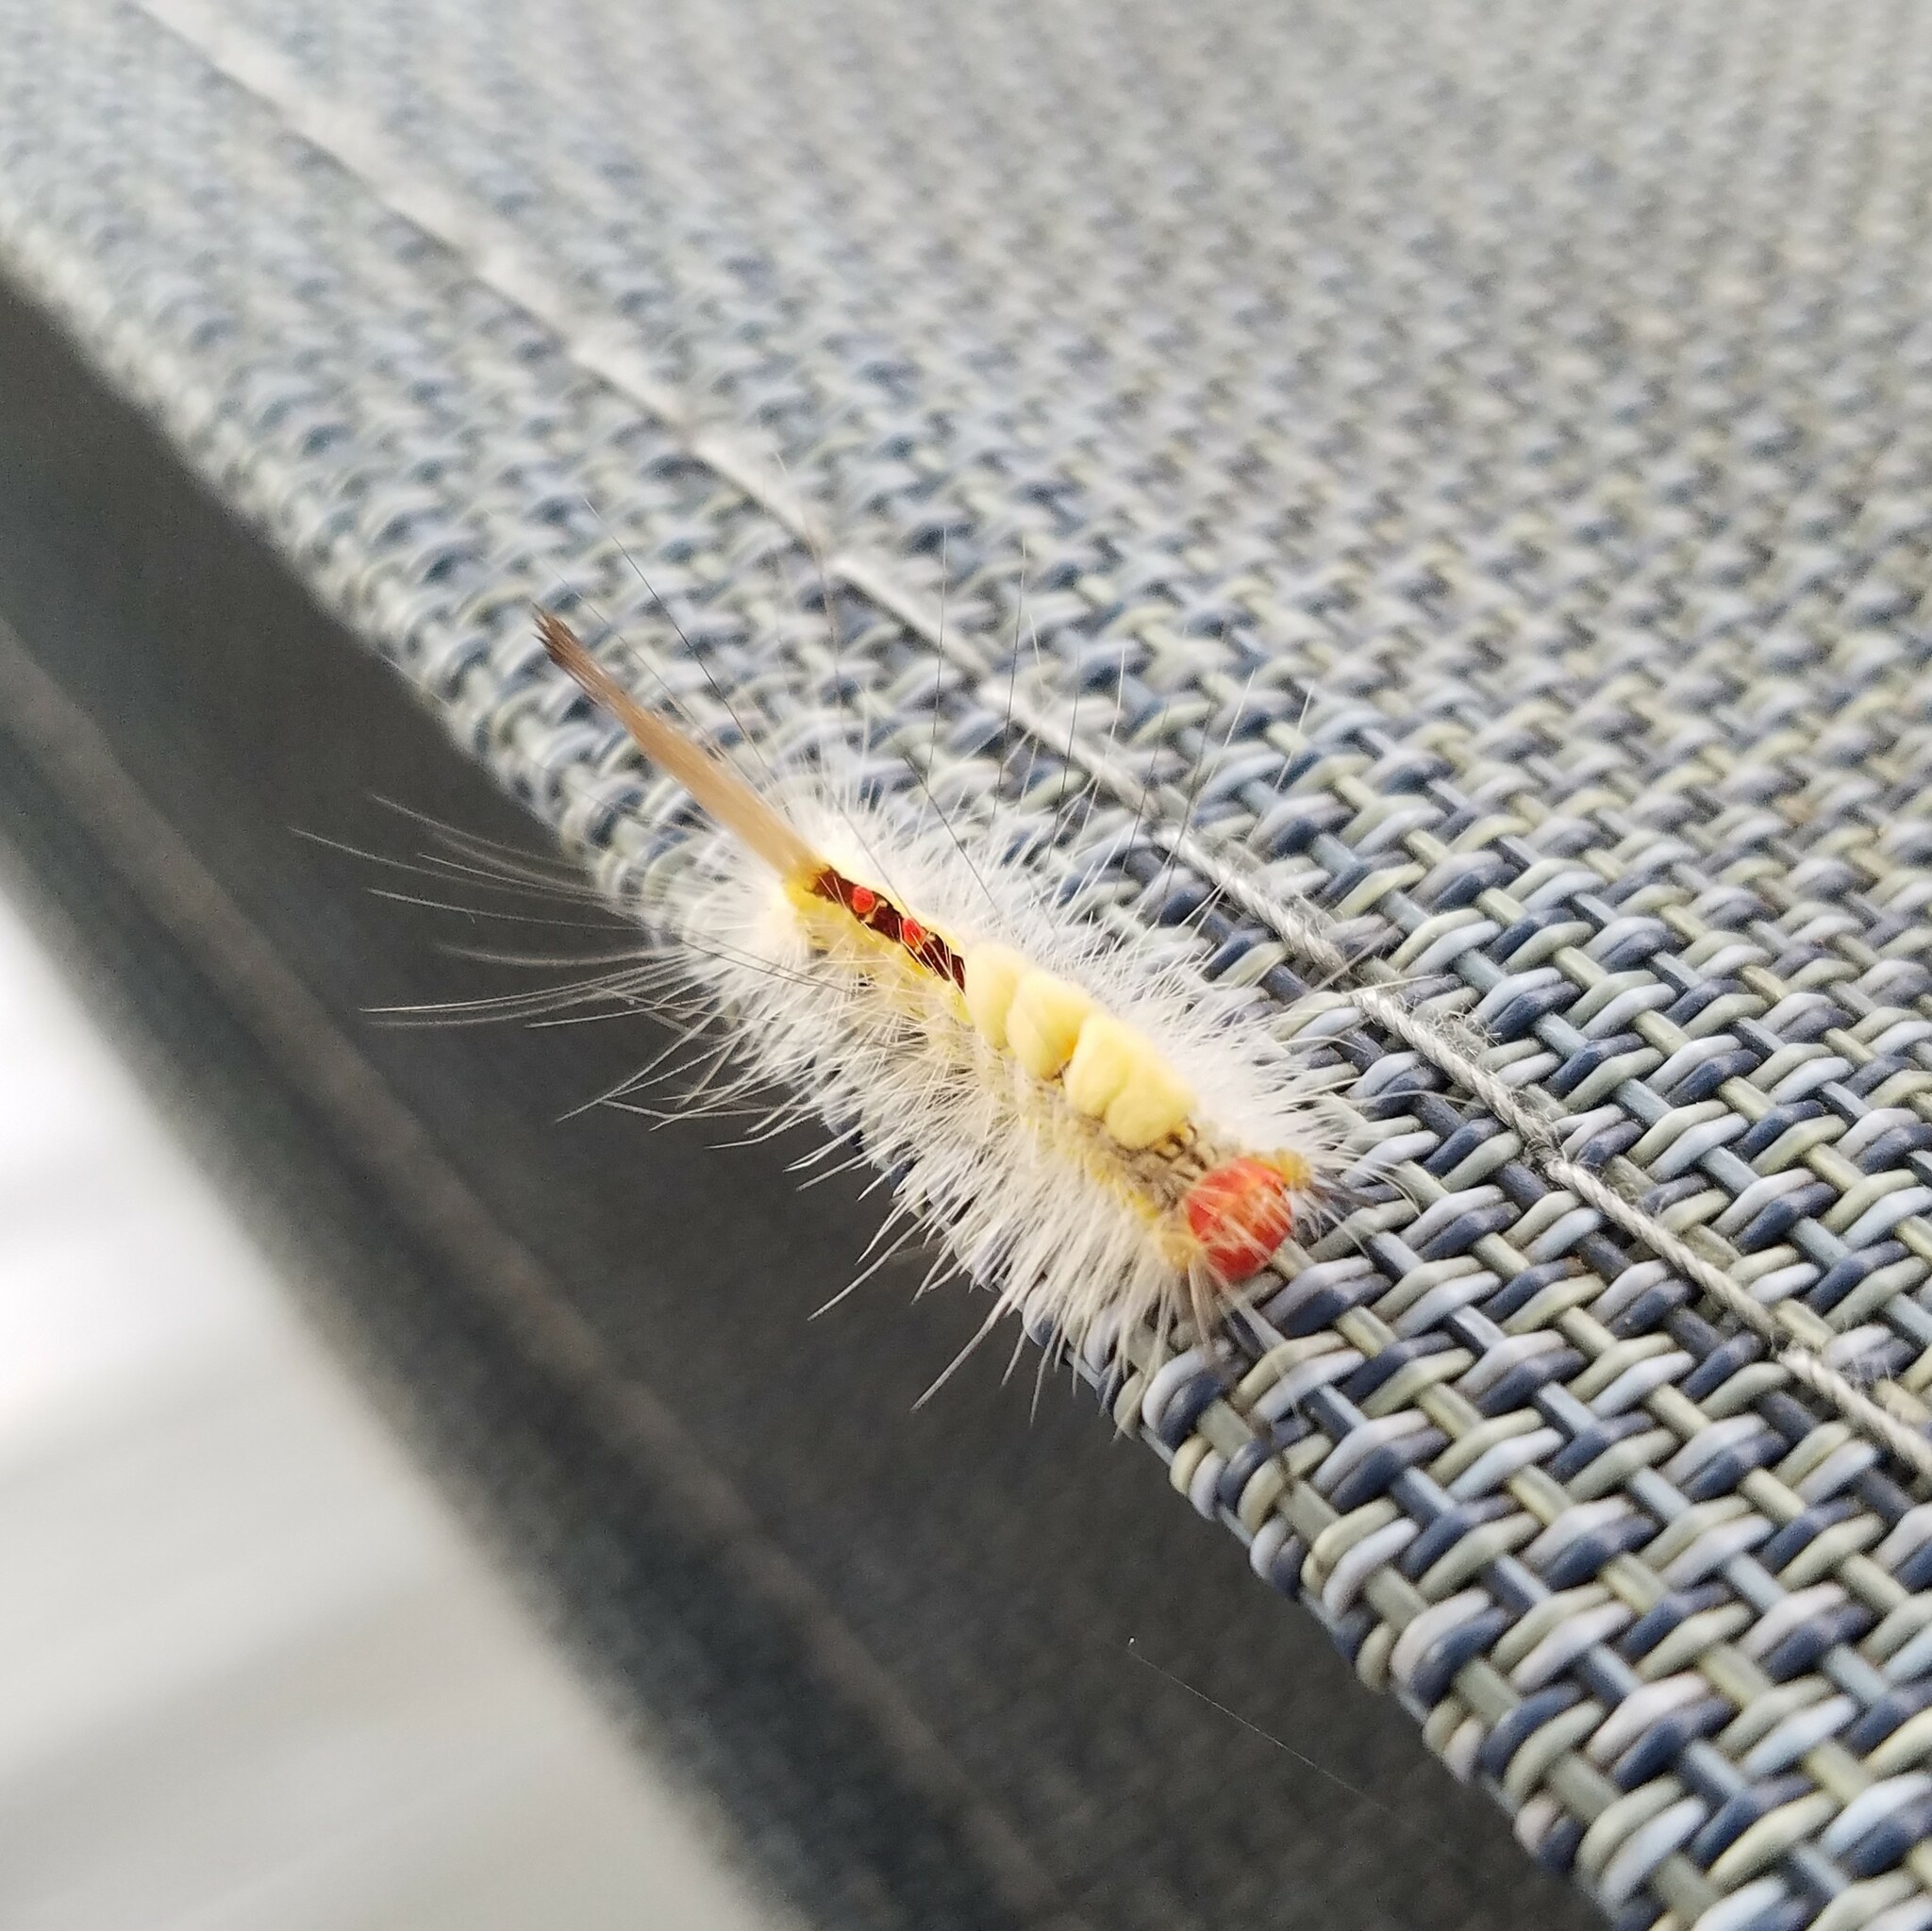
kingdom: Animalia
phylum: Arthropoda
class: Insecta
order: Lepidoptera
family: Erebidae
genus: Orgyia
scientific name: Orgyia leucostigma
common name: White-marked tussock moth
